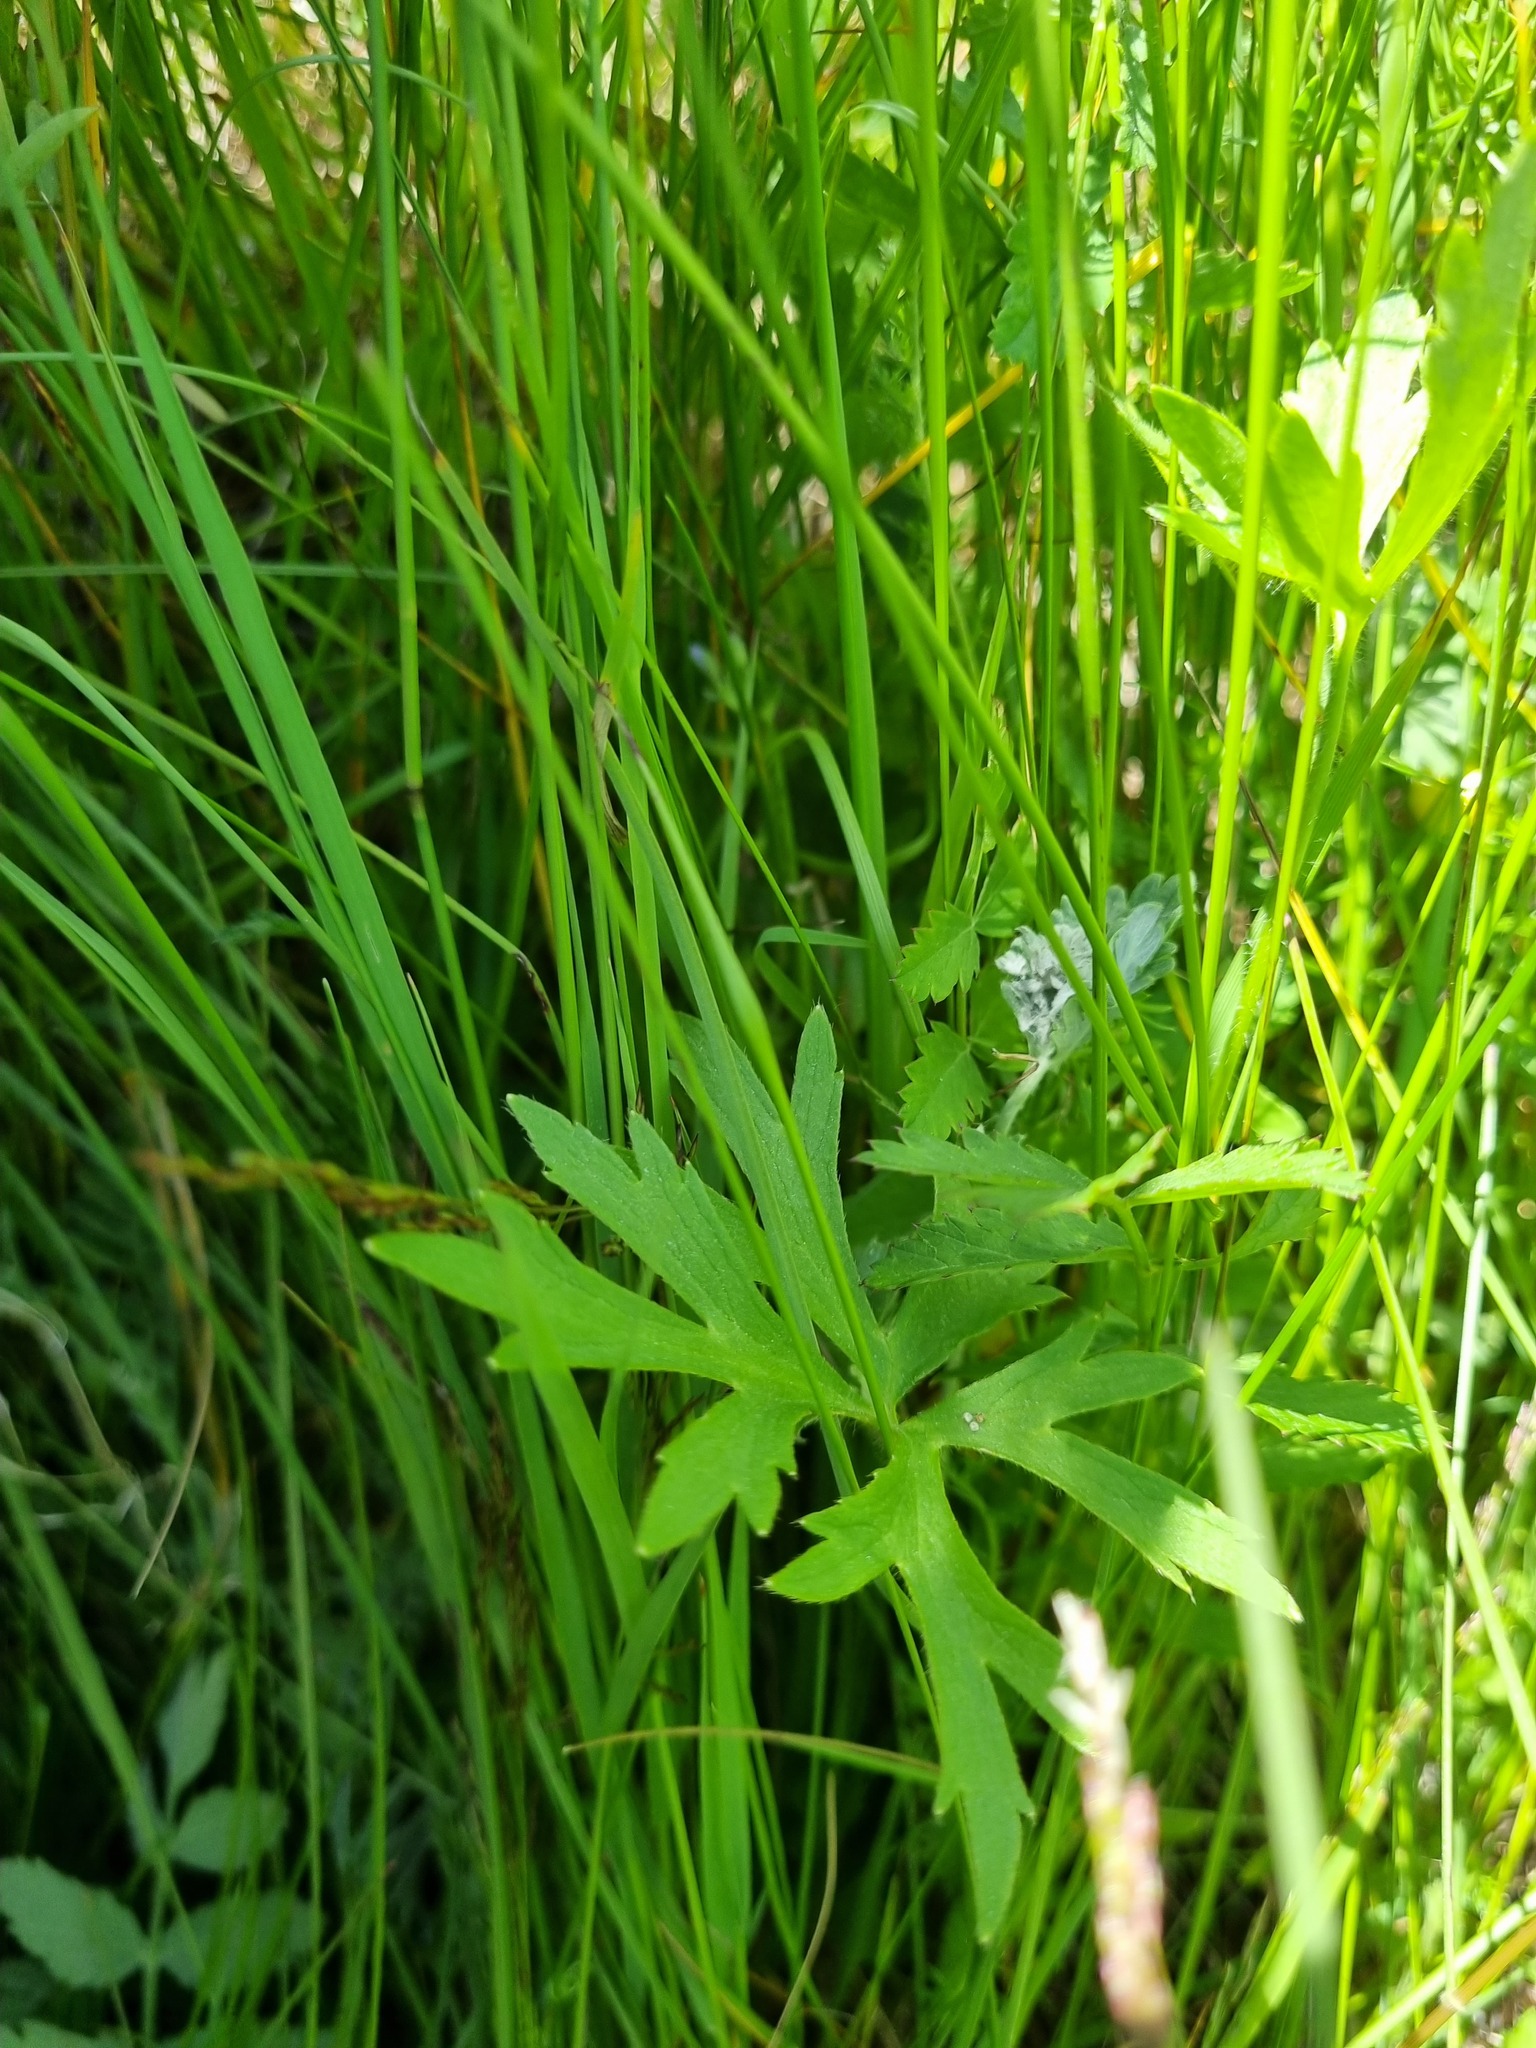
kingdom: Plantae
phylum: Tracheophyta
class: Magnoliopsida
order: Ranunculales
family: Ranunculaceae
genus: Ranunculus
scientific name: Ranunculus polyanthemos
